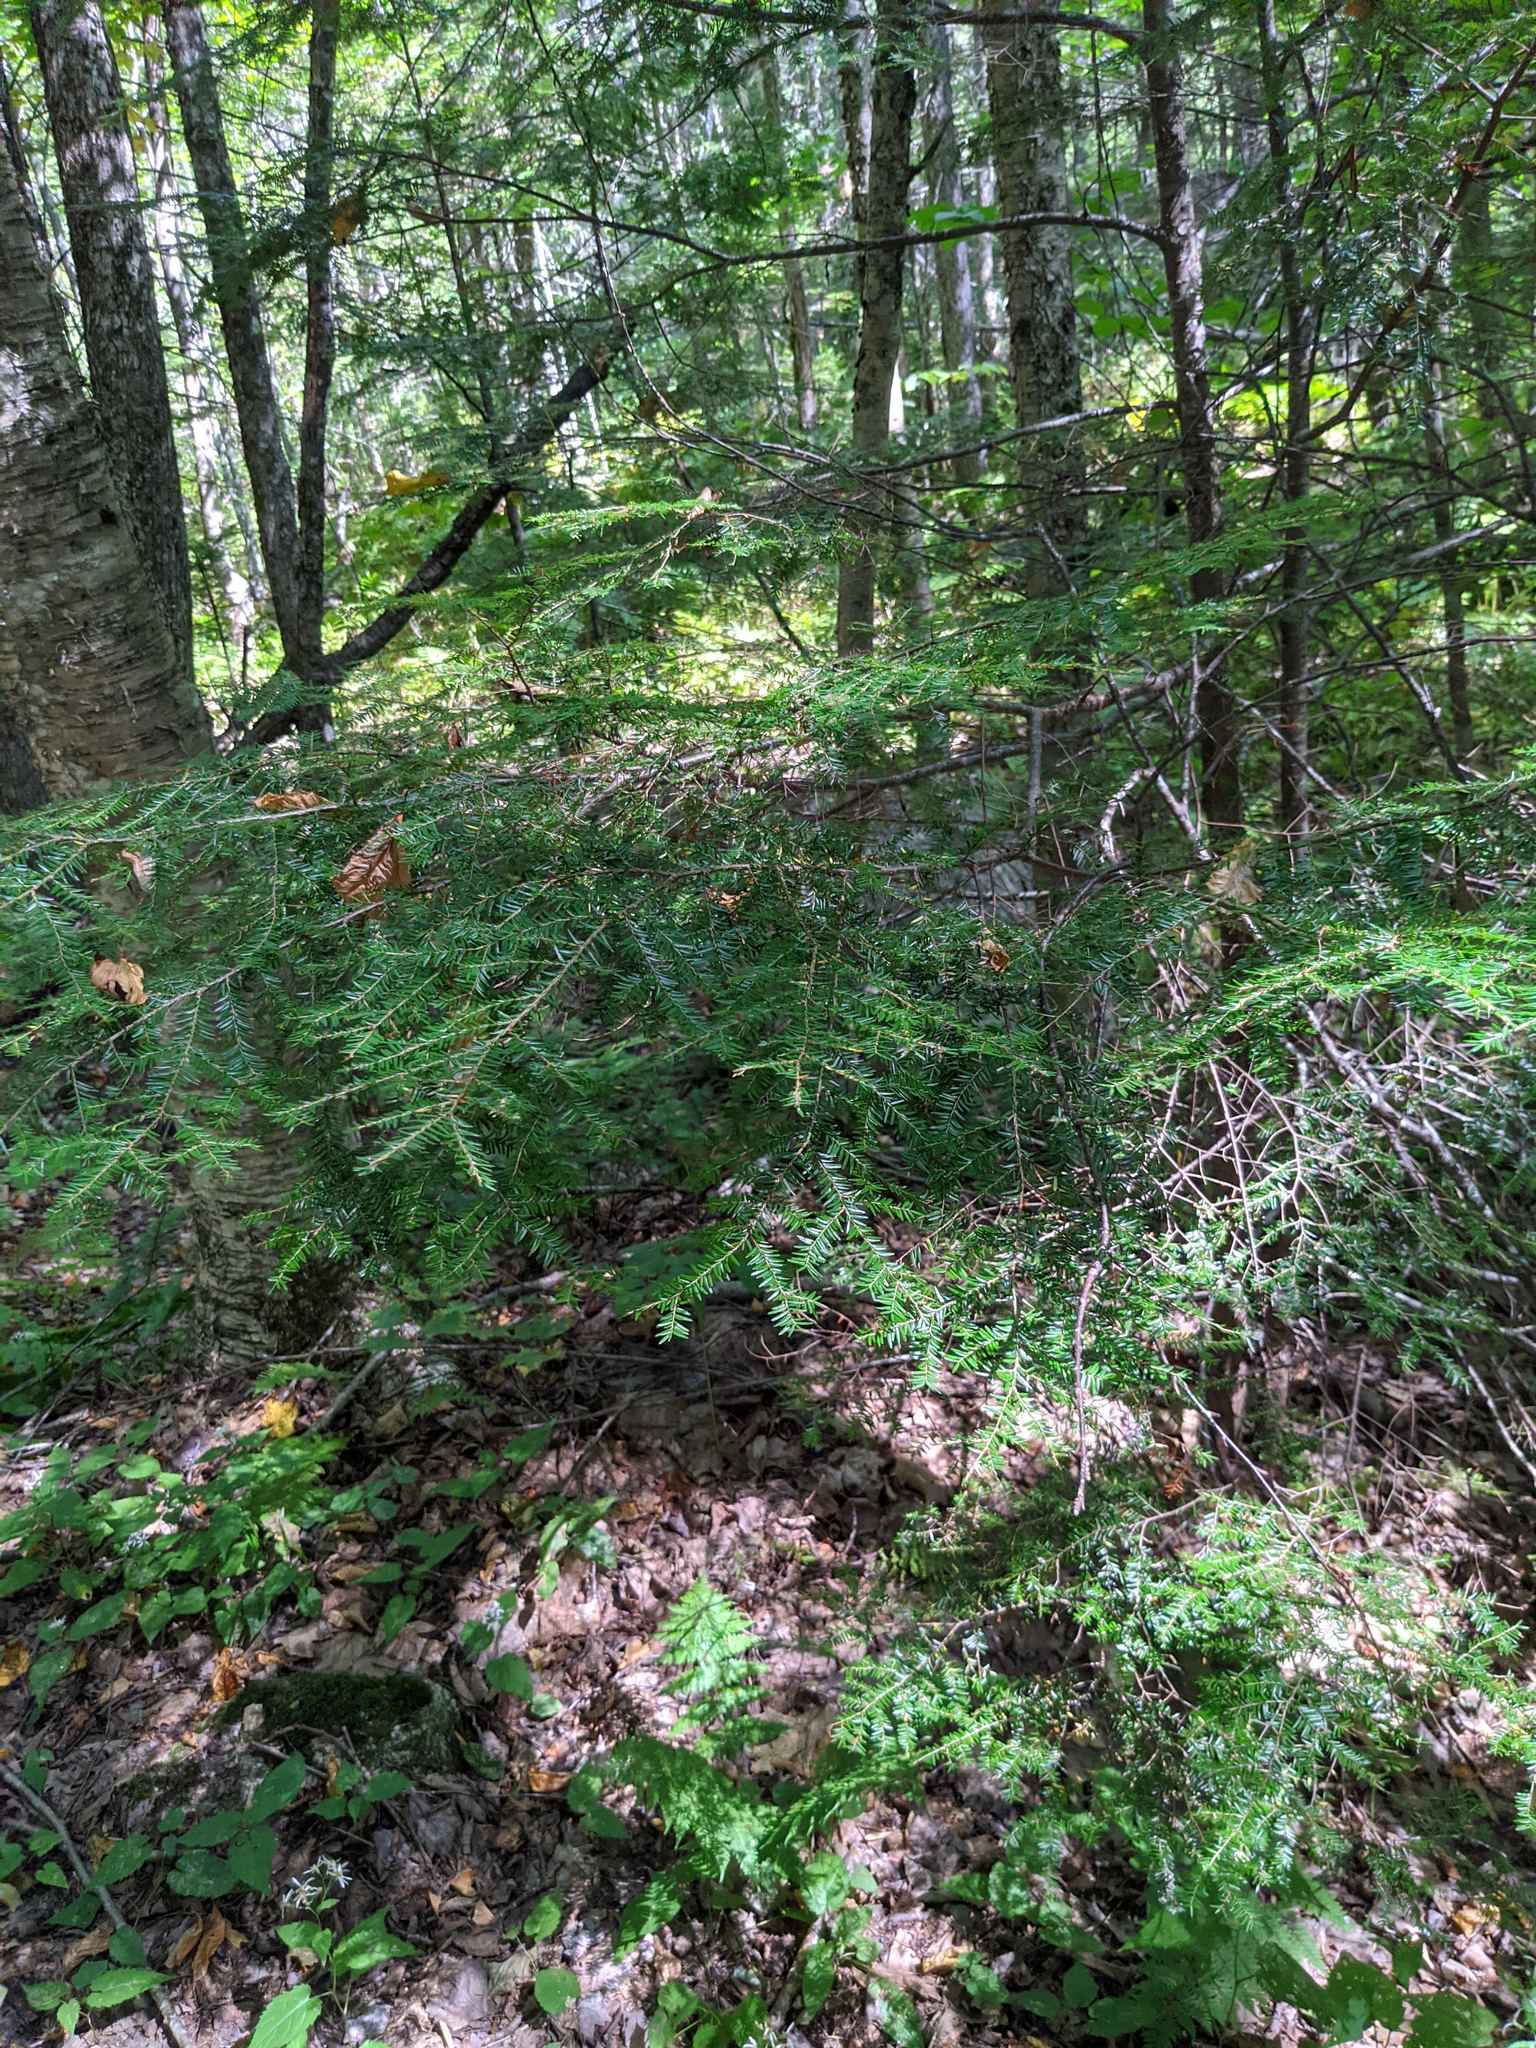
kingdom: Plantae
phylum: Tracheophyta
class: Pinopsida
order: Pinales
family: Pinaceae
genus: Tsuga
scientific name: Tsuga canadensis
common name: Eastern hemlock
